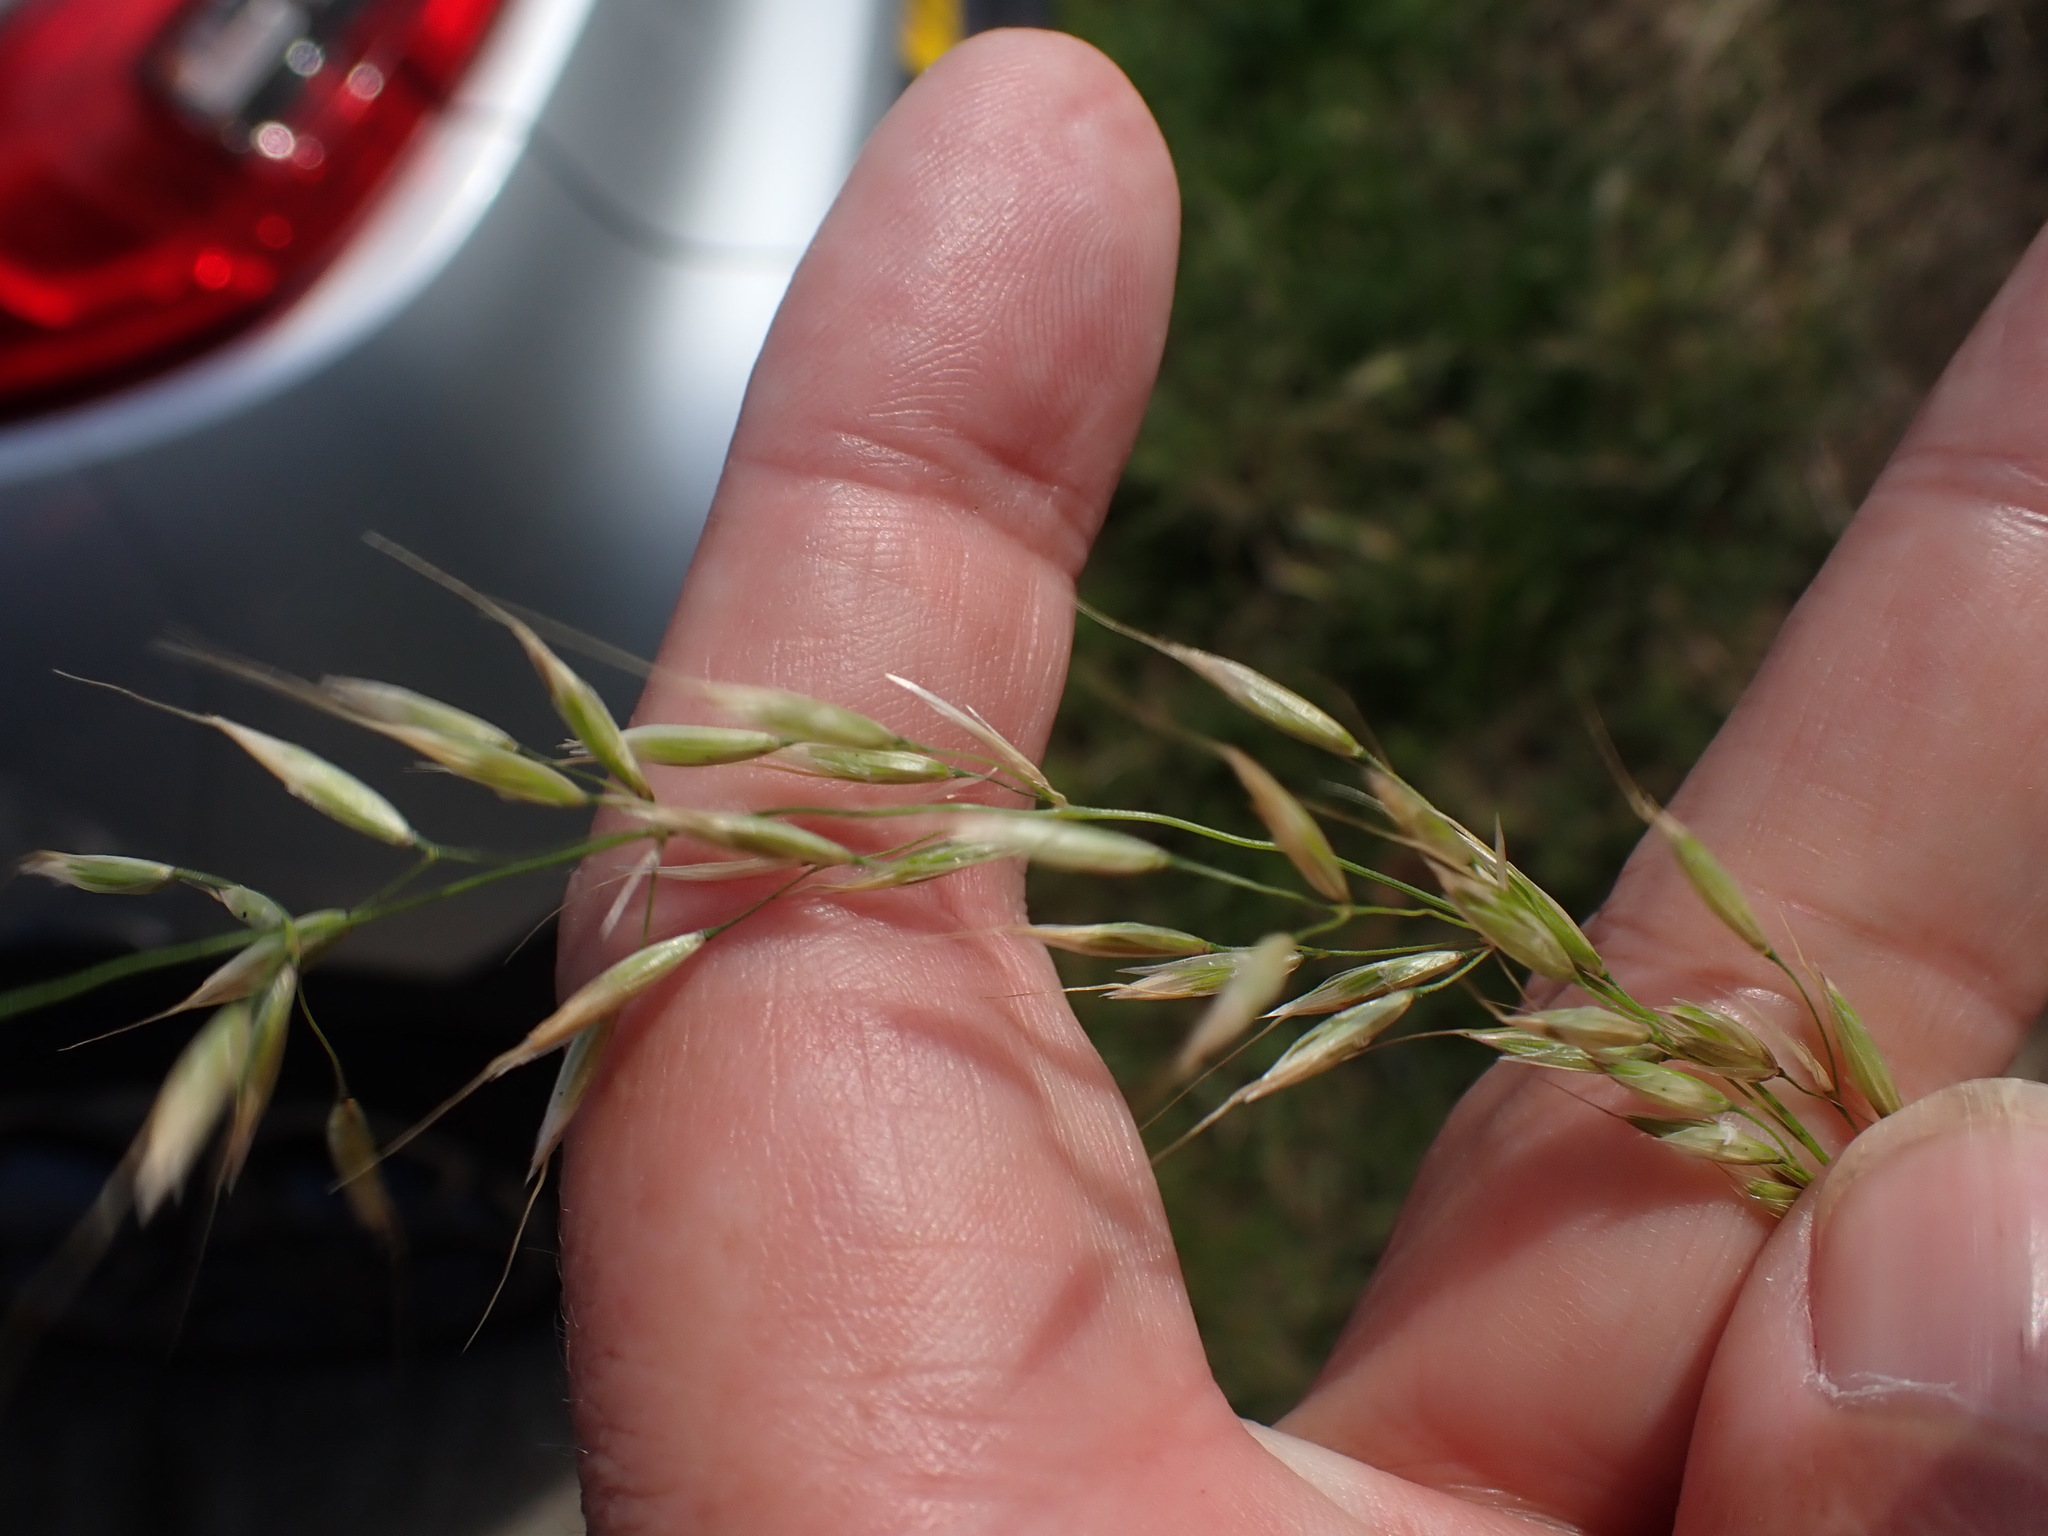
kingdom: Plantae
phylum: Tracheophyta
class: Liliopsida
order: Poales
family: Poaceae
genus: Arrhenatherum
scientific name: Arrhenatherum elatius
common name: Tall oatgrass
